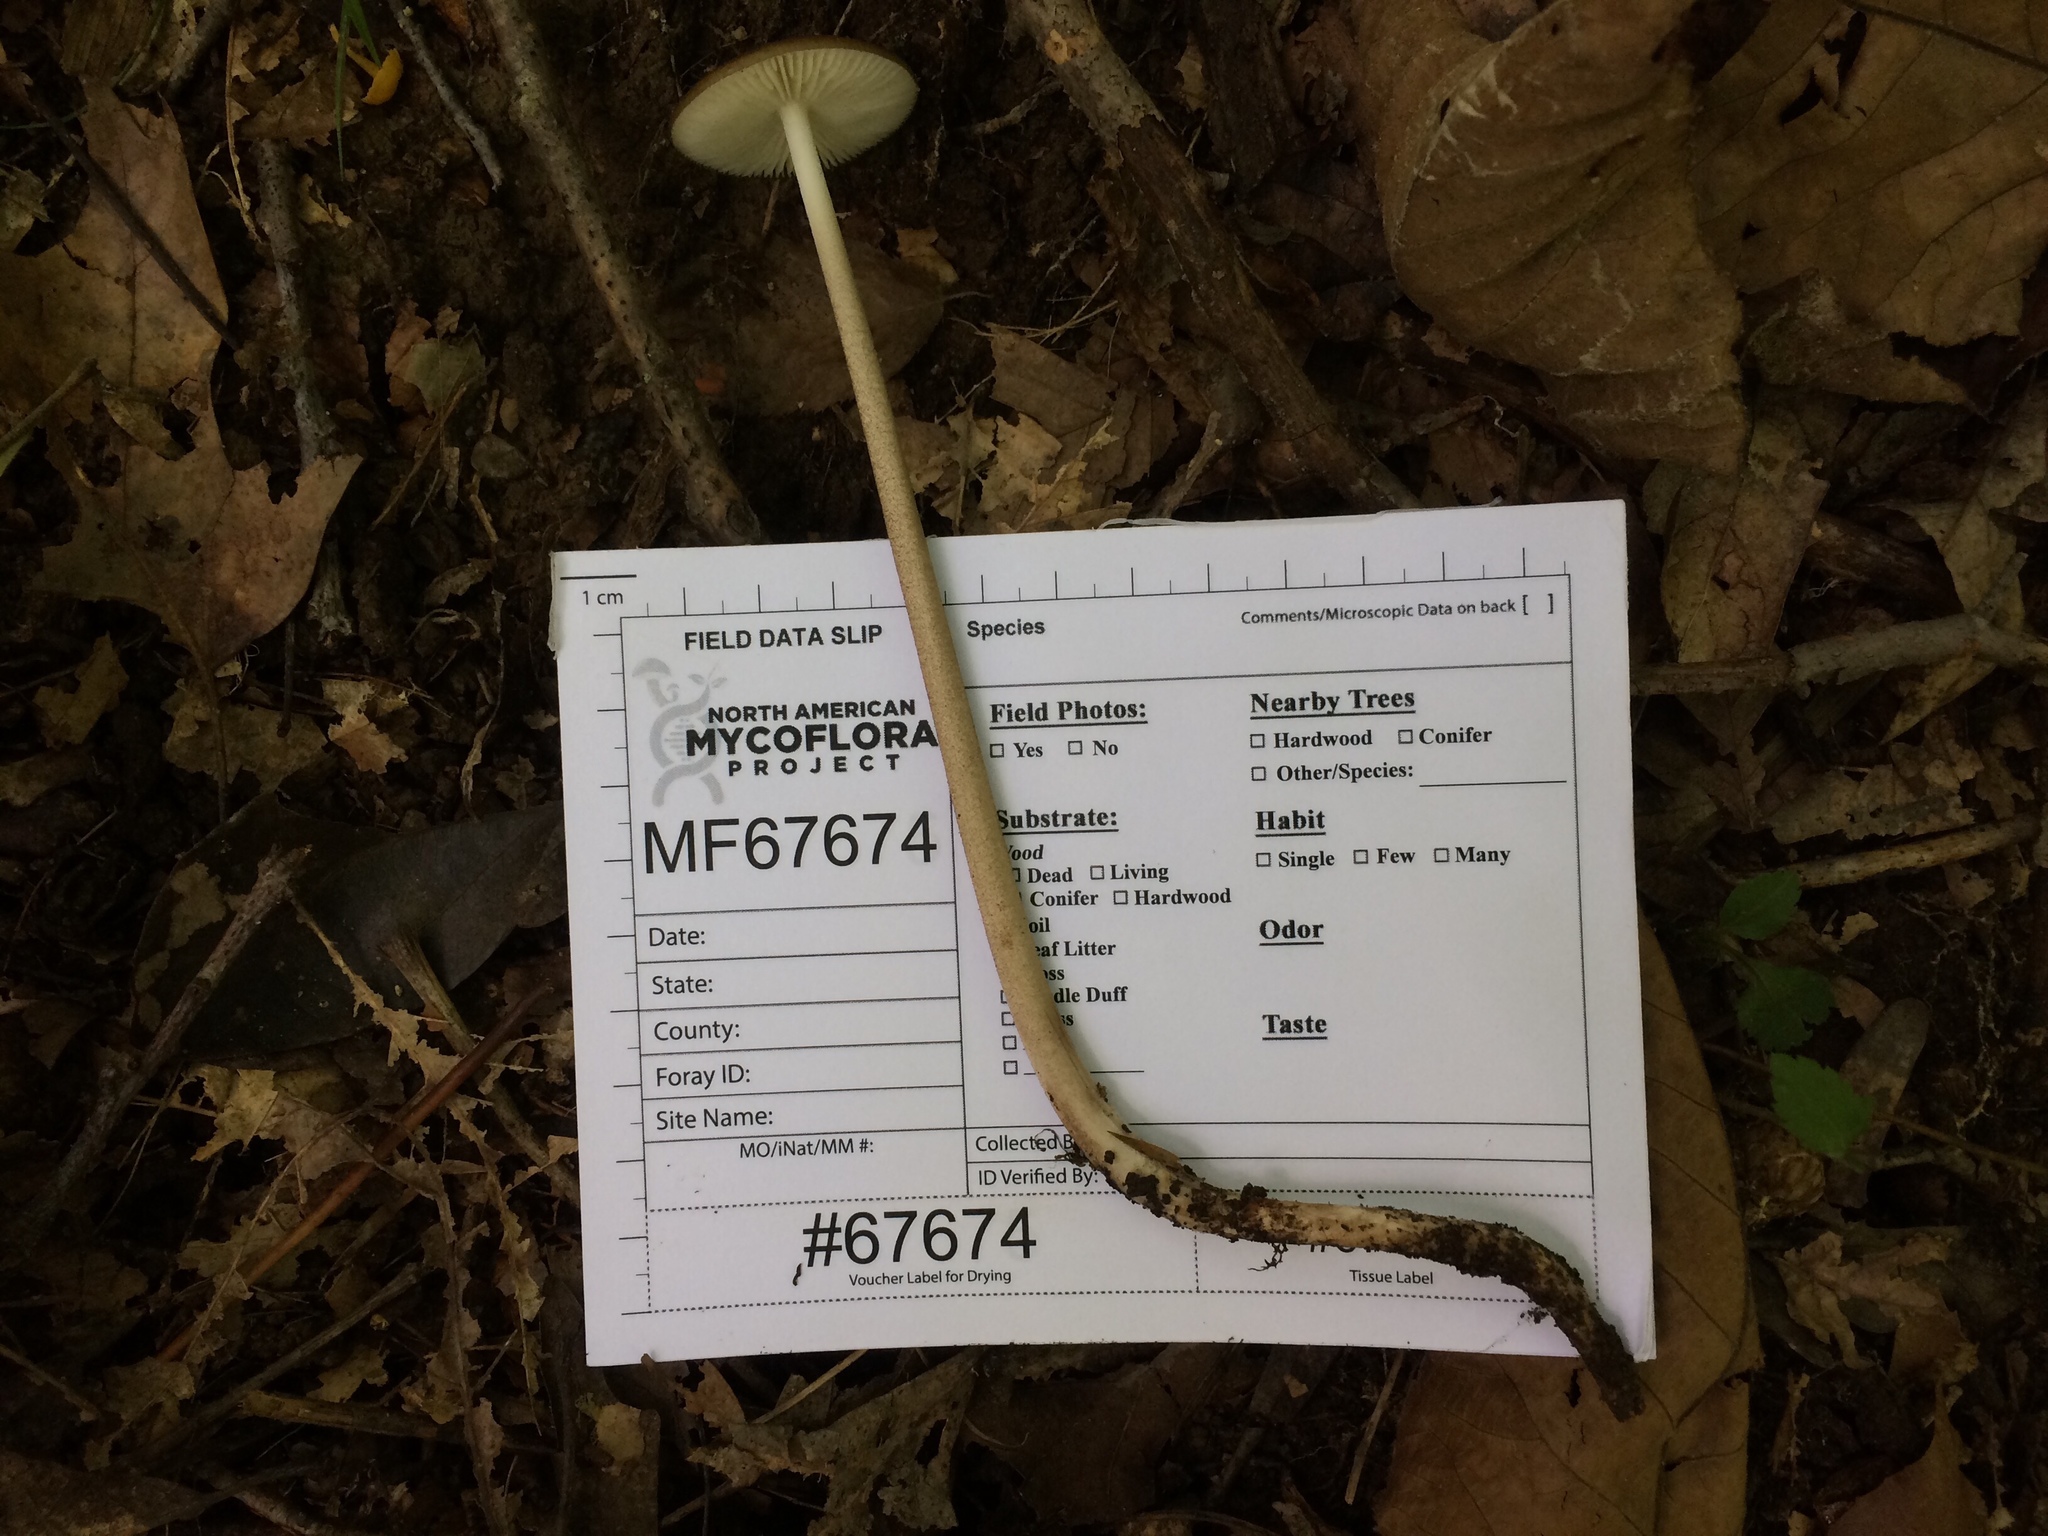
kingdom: Fungi
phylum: Basidiomycota
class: Agaricomycetes
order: Agaricales
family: Physalacriaceae
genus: Hymenopellis
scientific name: Hymenopellis furfuracea
